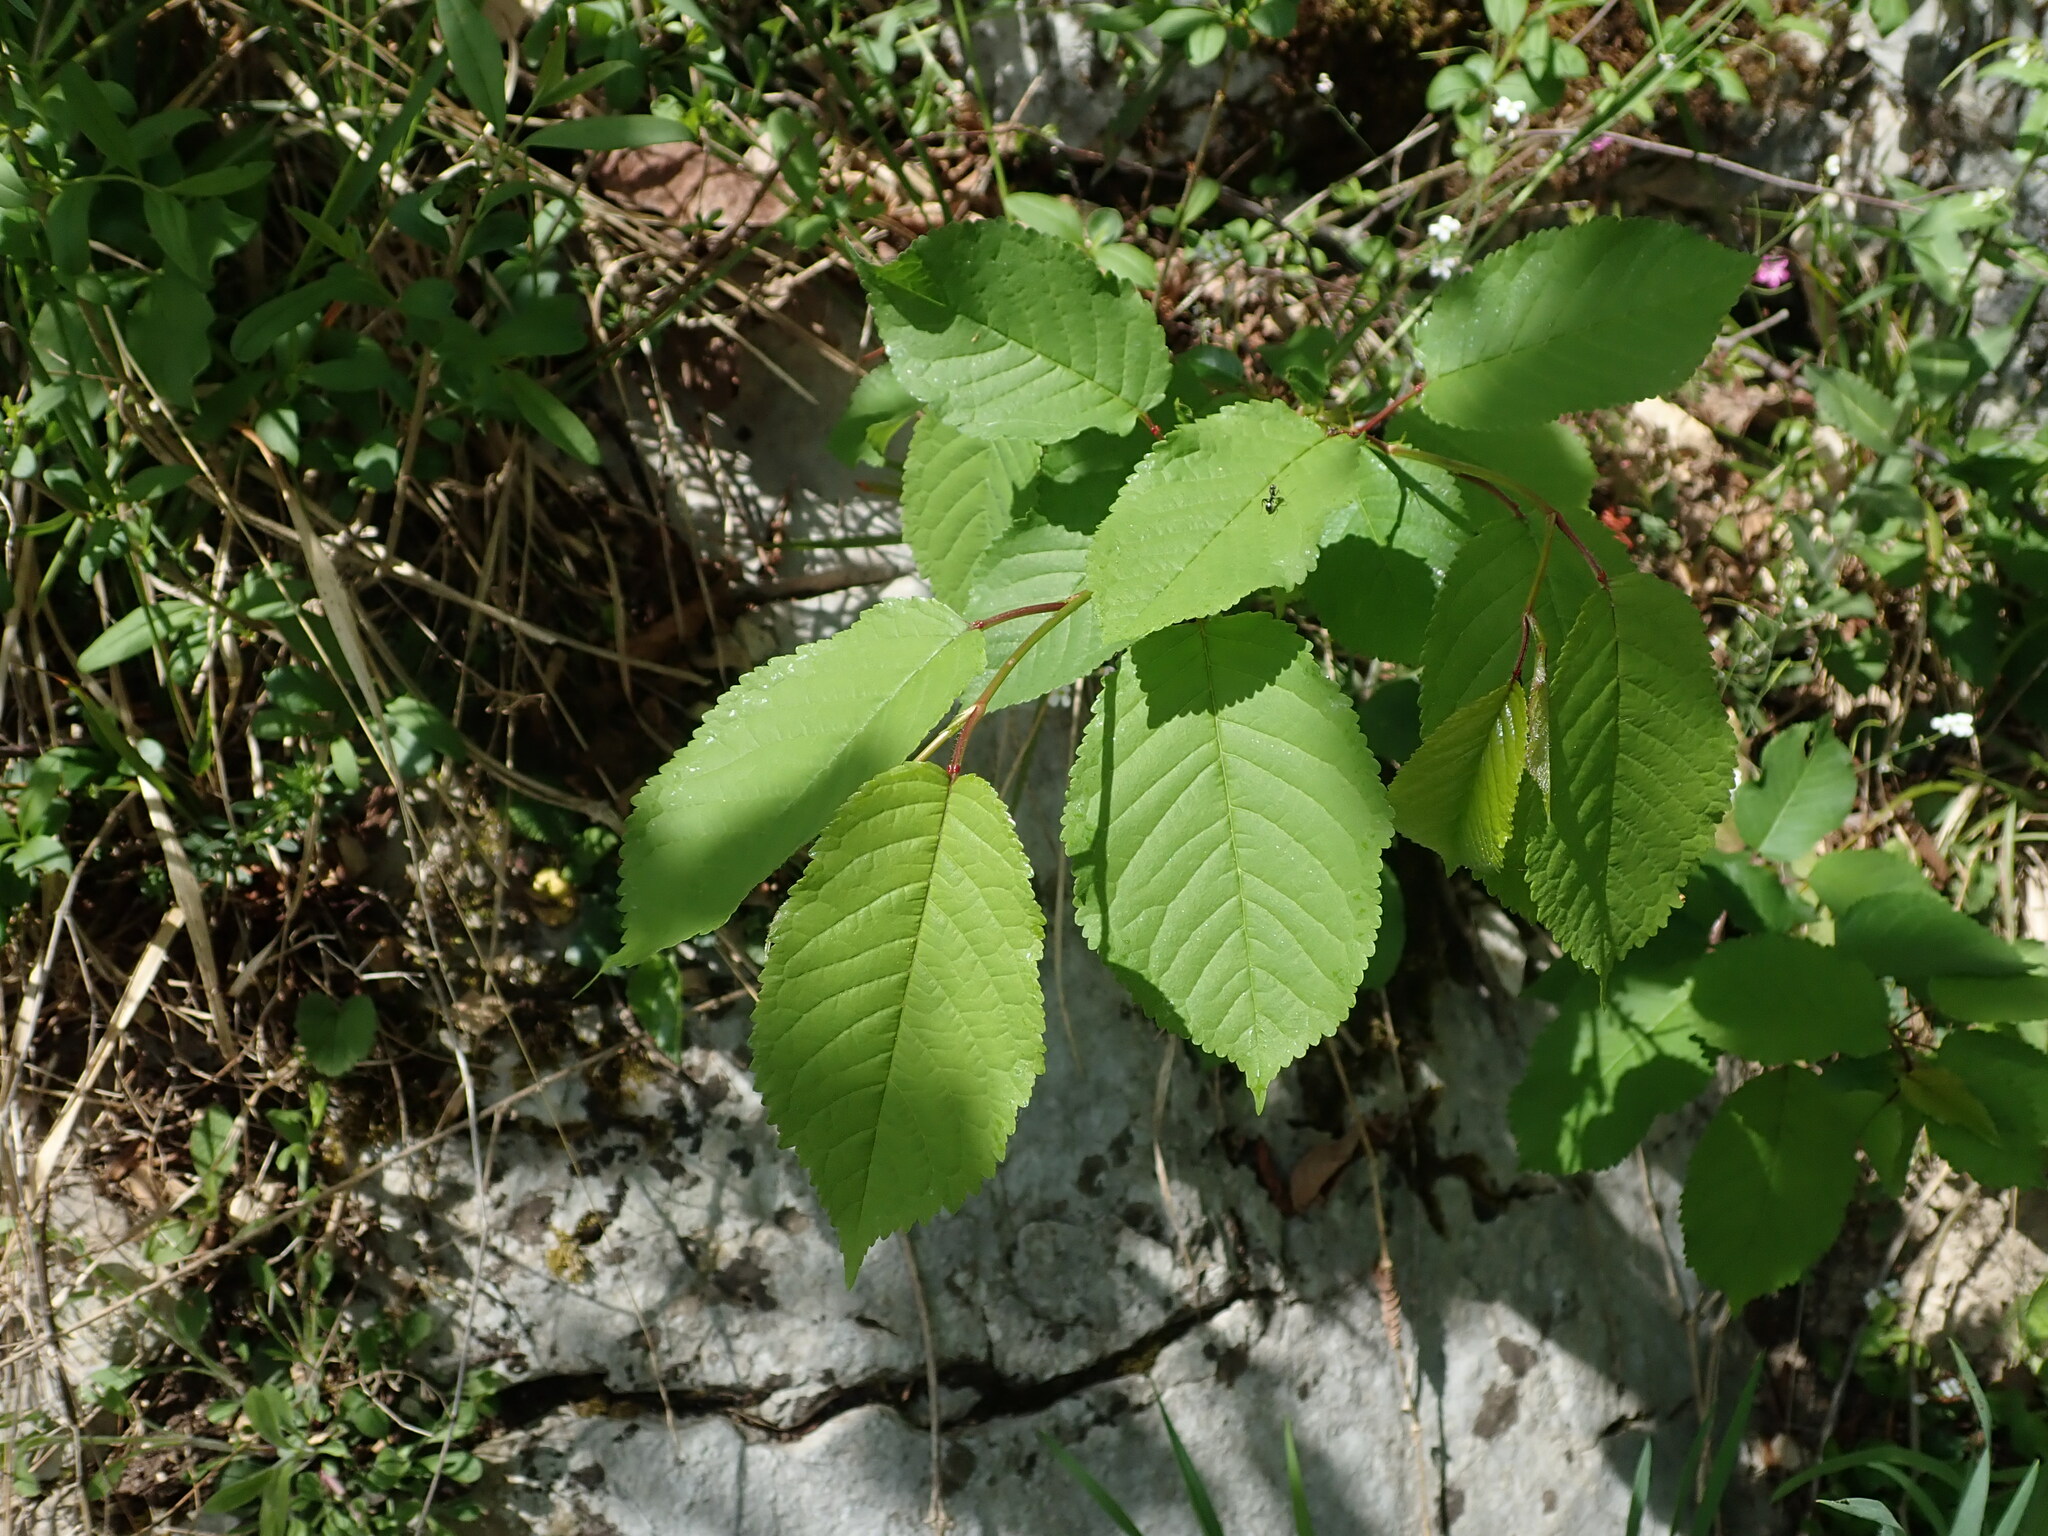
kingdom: Plantae
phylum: Tracheophyta
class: Magnoliopsida
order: Rosales
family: Rosaceae
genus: Prunus
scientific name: Prunus avium
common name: Sweet cherry
